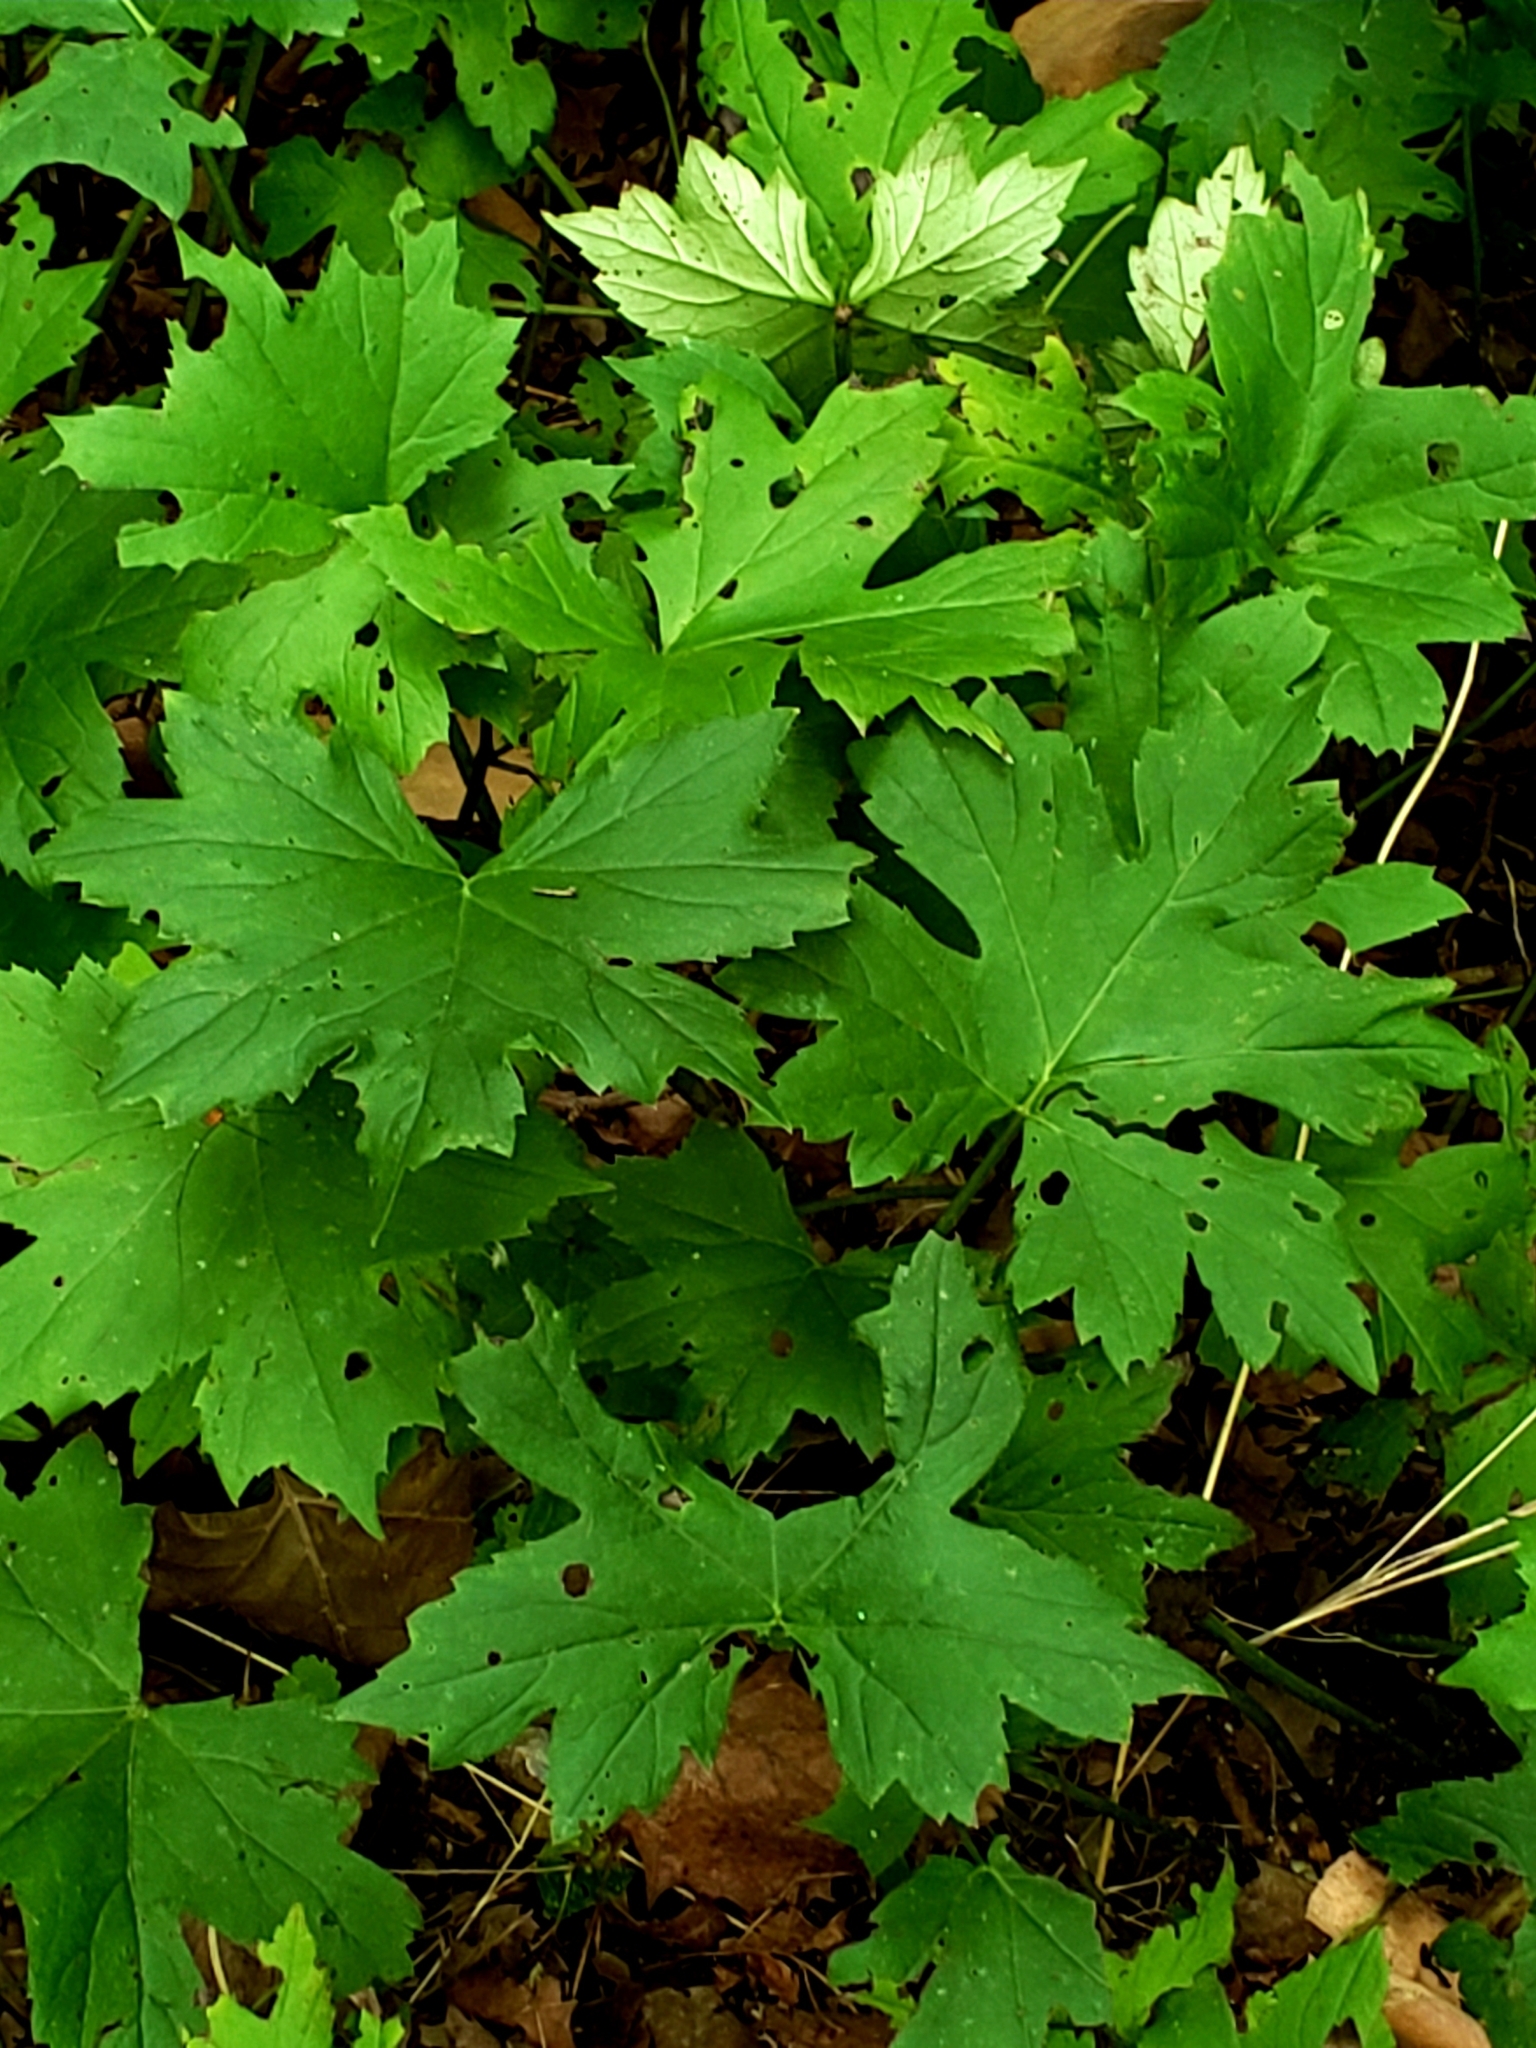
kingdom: Plantae
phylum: Tracheophyta
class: Magnoliopsida
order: Boraginales
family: Hydrophyllaceae
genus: Hydrophyllum
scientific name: Hydrophyllum canadense
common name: Canada waterleaf
